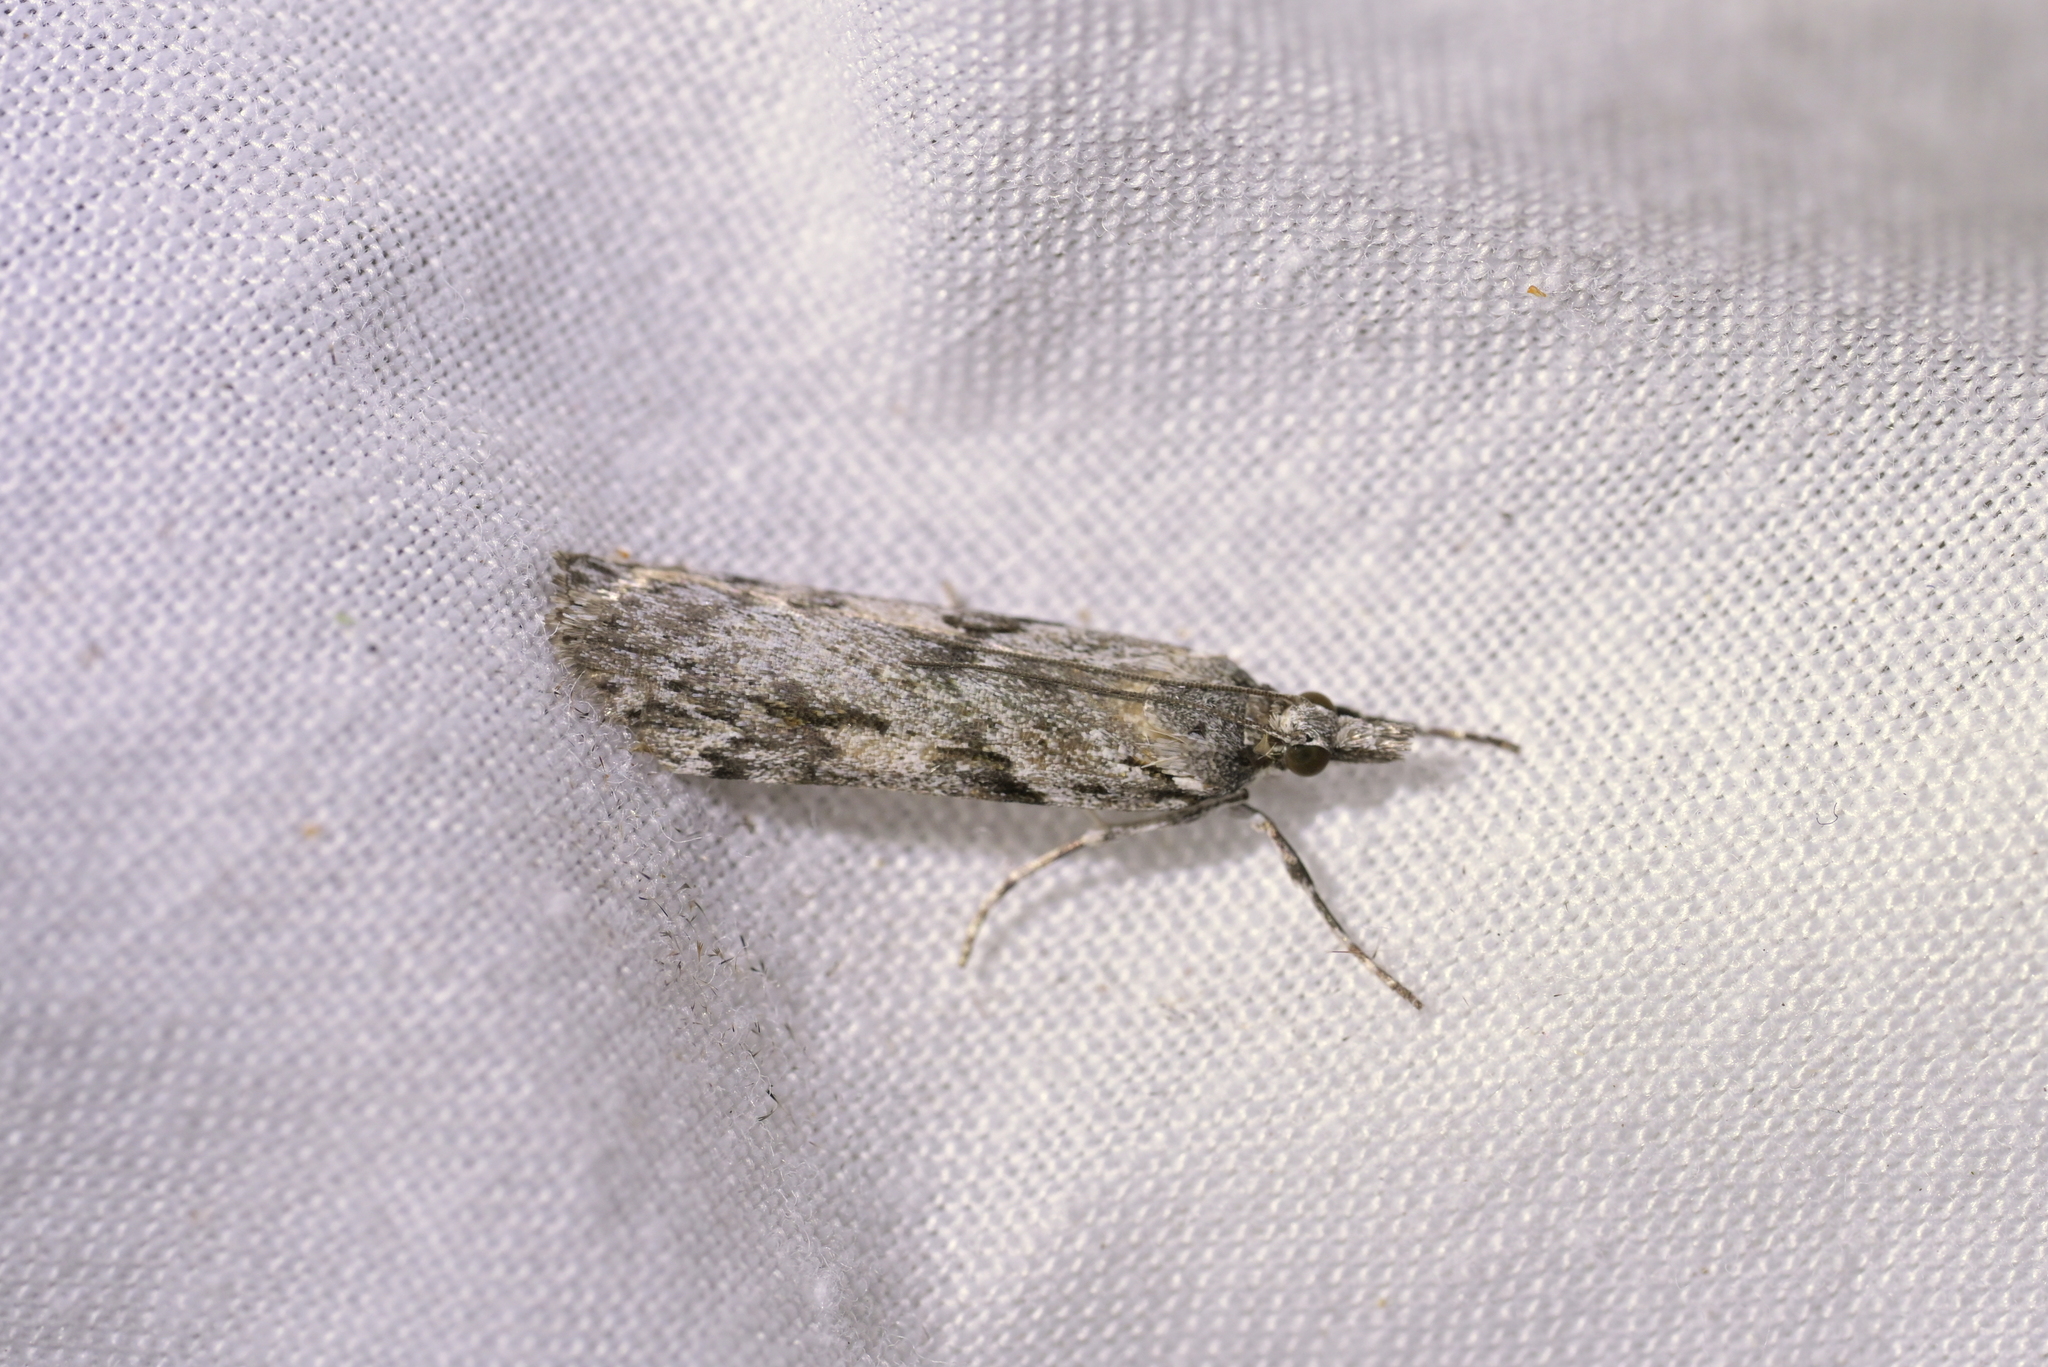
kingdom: Animalia
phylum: Arthropoda
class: Insecta
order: Lepidoptera
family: Crambidae
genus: Scoparia
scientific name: Scoparia halopis
